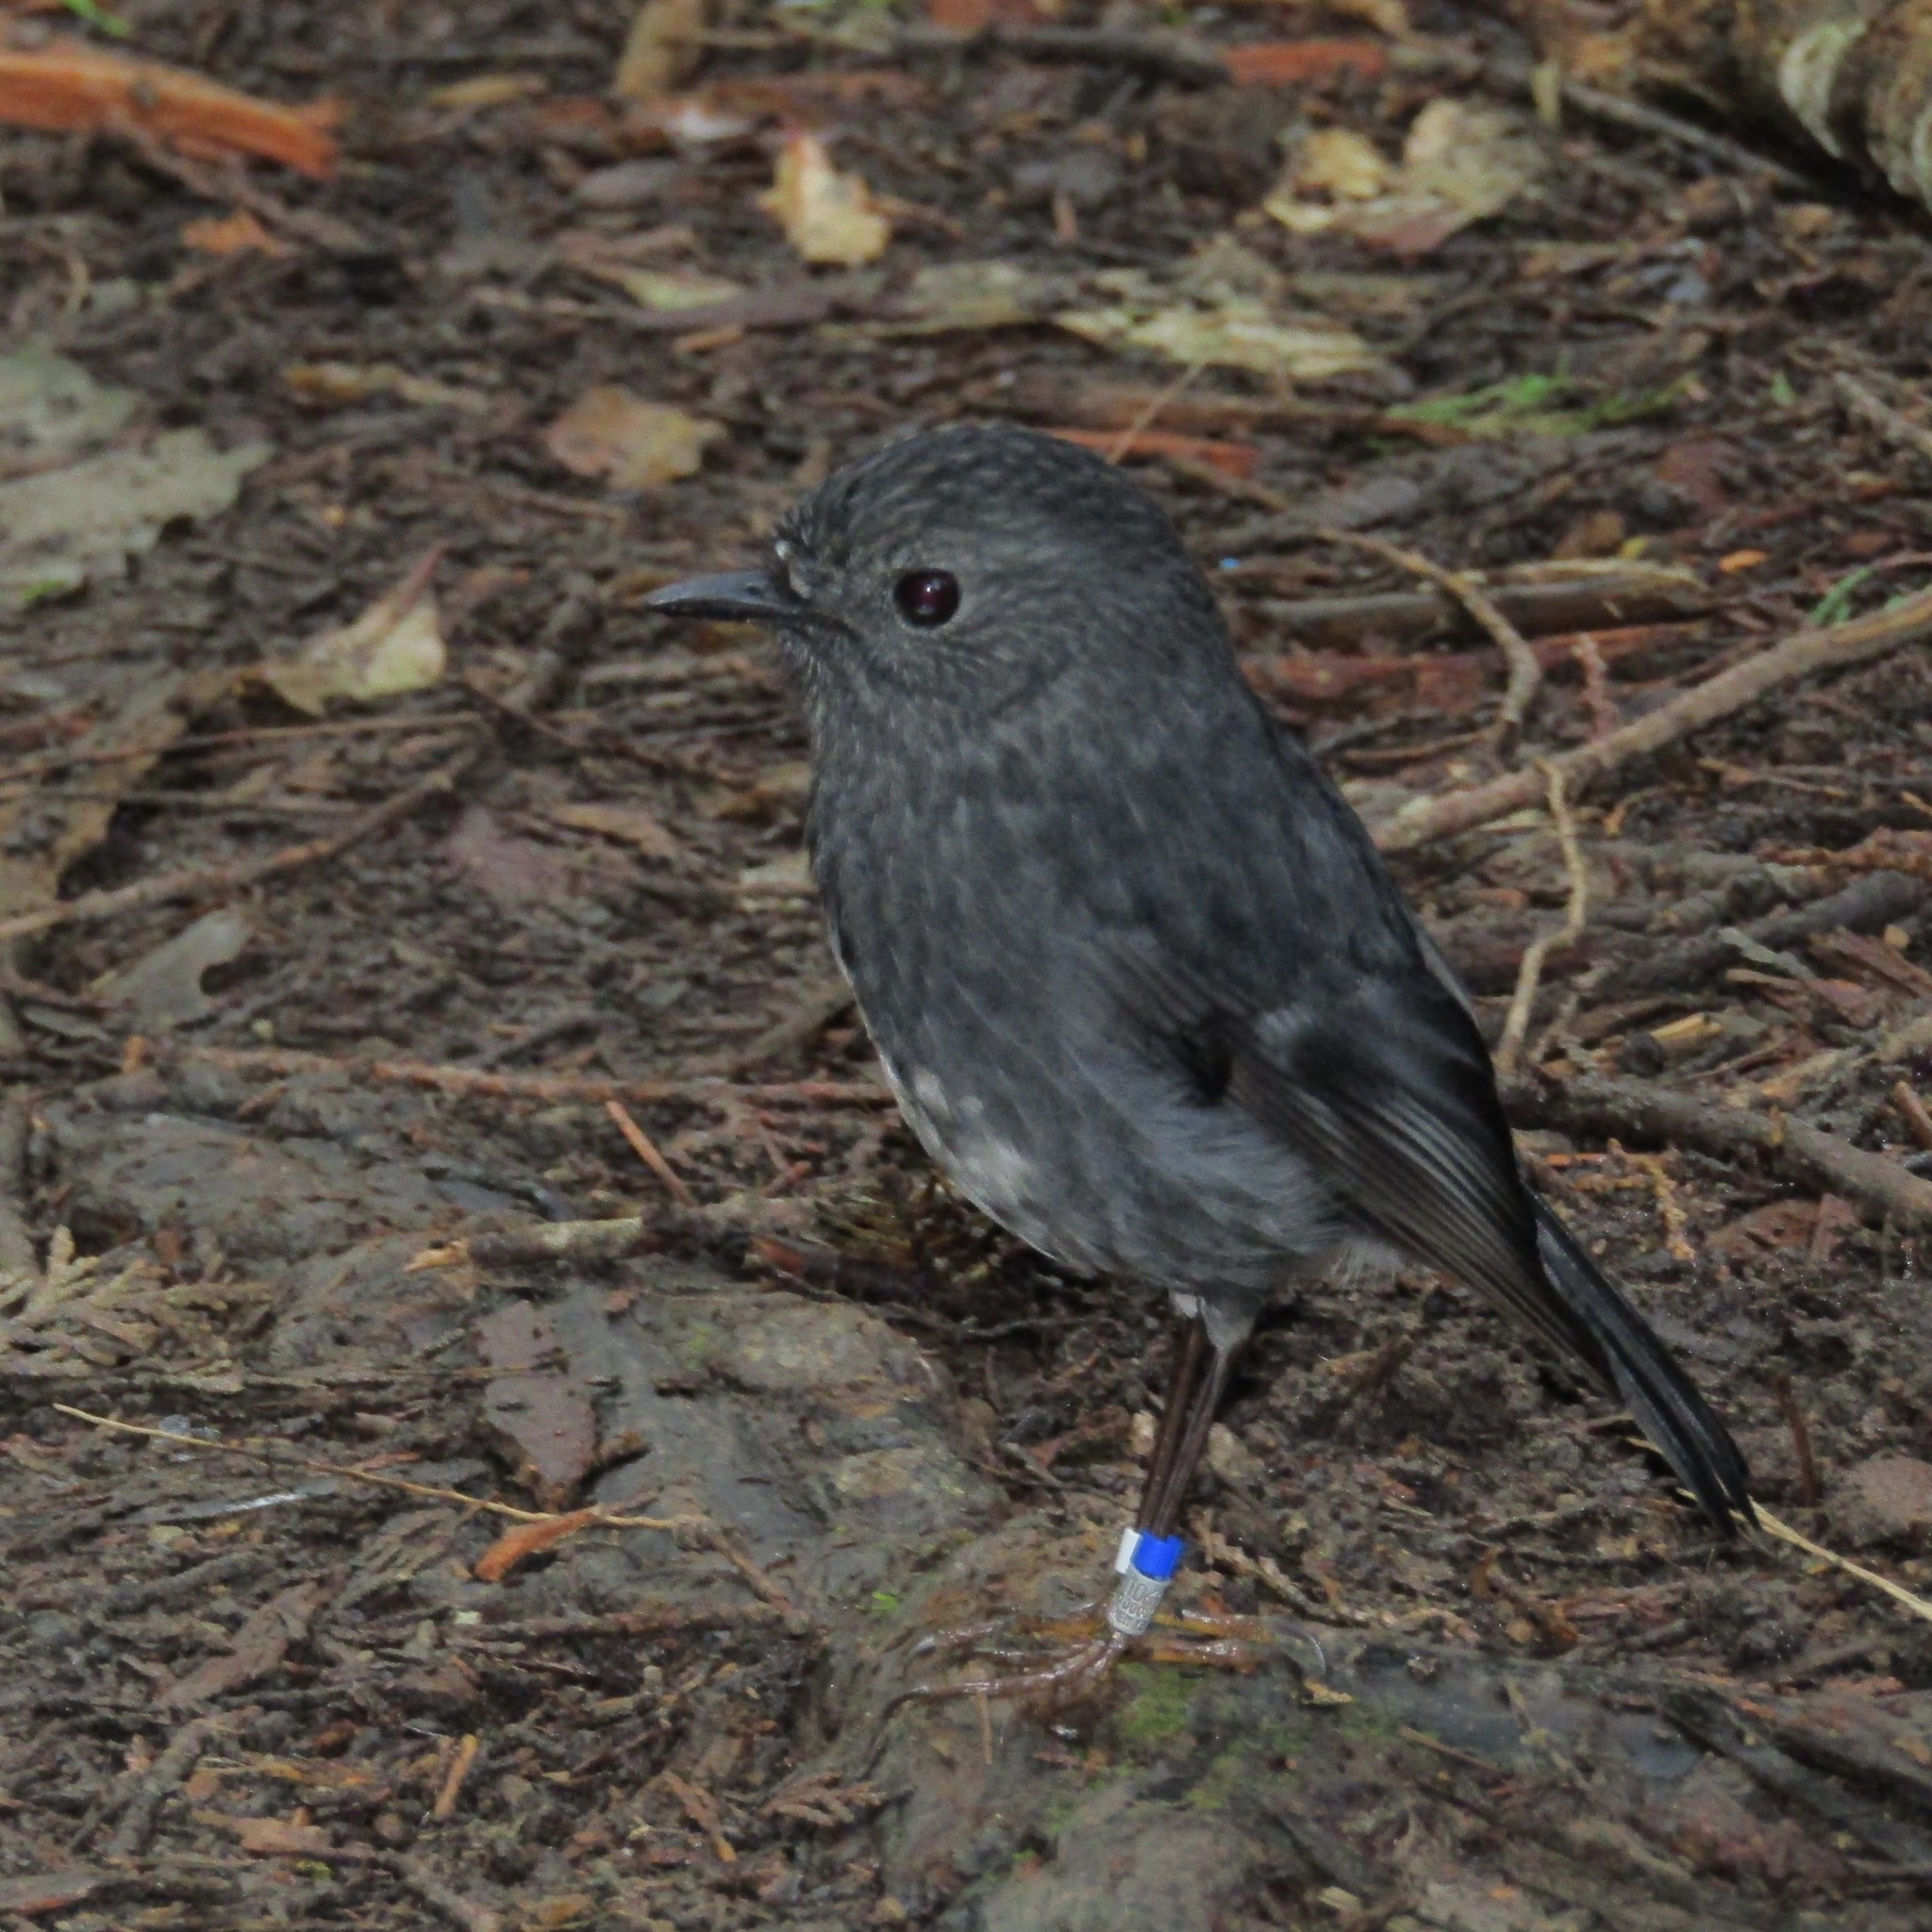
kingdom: Animalia
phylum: Chordata
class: Aves
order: Passeriformes
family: Petroicidae
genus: Petroica
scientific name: Petroica australis
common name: New zealand robin
